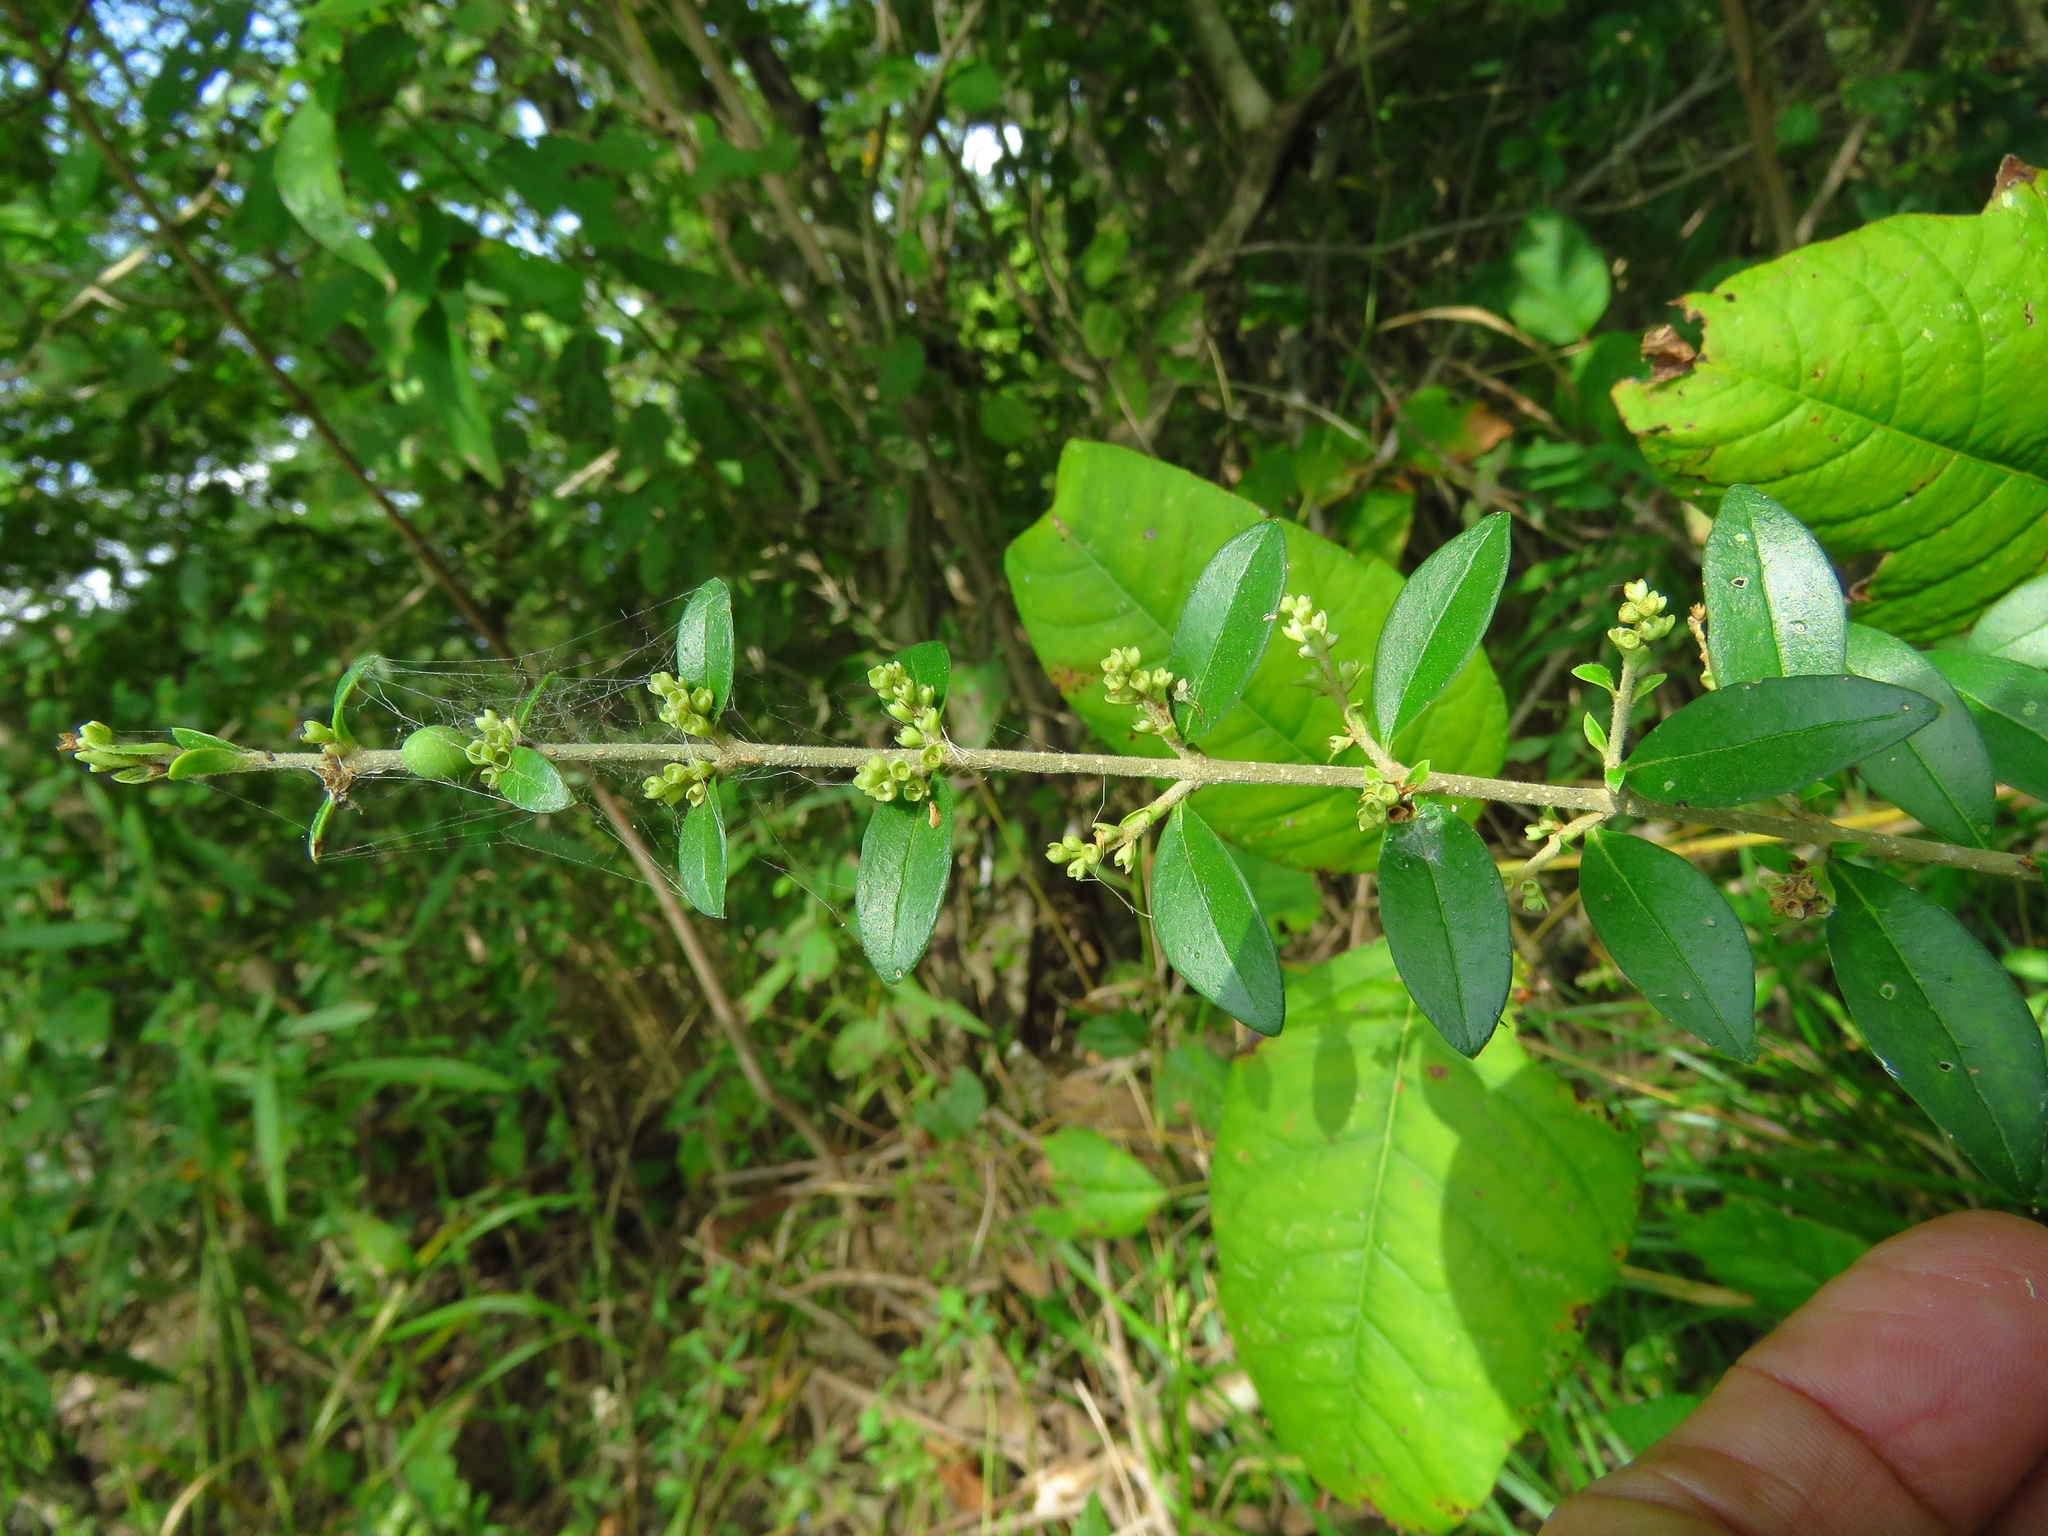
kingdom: Plantae
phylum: Tracheophyta
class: Magnoliopsida
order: Lamiales
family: Oleaceae
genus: Ligustrum
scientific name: Ligustrum quihoui
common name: Waxyleaf privet
